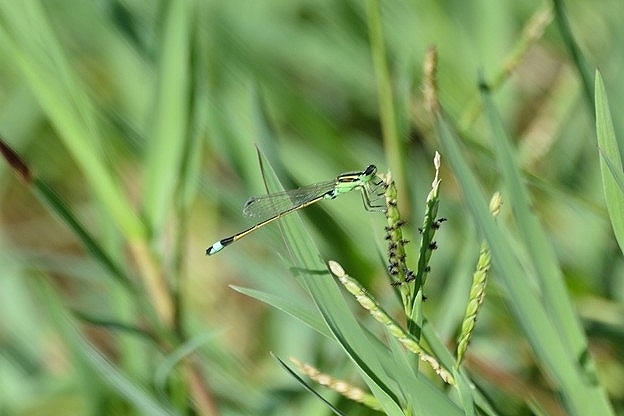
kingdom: Animalia
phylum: Arthropoda
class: Insecta
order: Odonata
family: Coenagrionidae
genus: Ischnura
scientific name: Ischnura senegalensis
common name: Tropical bluetail
